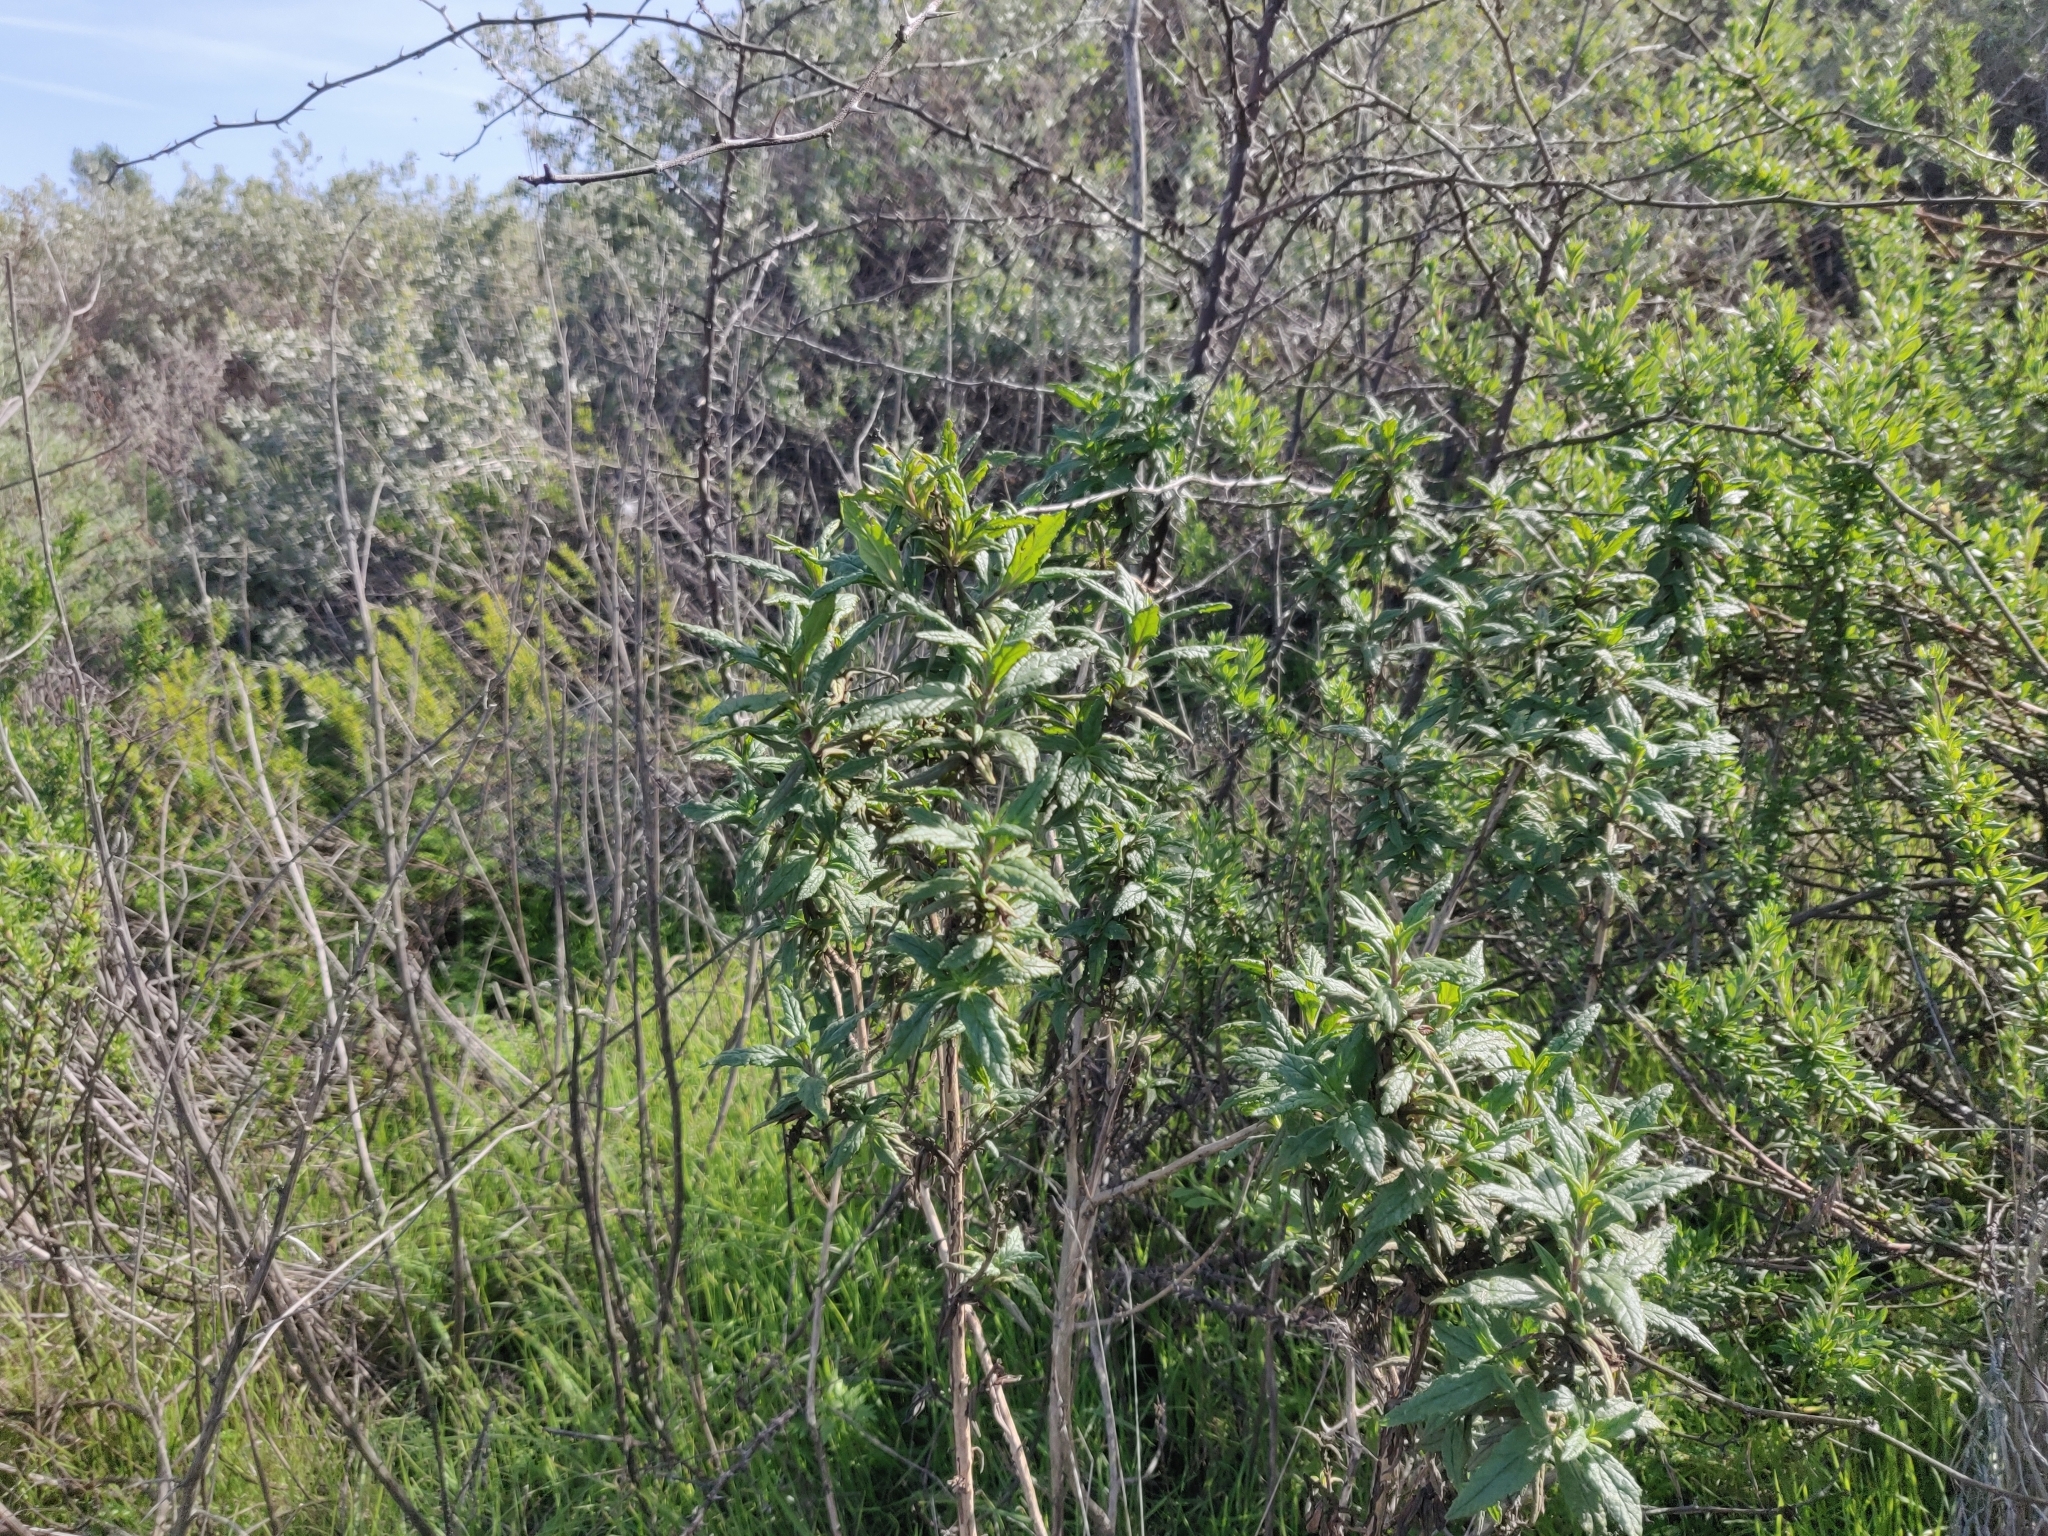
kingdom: Plantae
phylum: Tracheophyta
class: Magnoliopsida
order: Lamiales
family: Phrymaceae
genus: Diplacus
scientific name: Diplacus aurantiacus
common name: Bush monkey-flower
